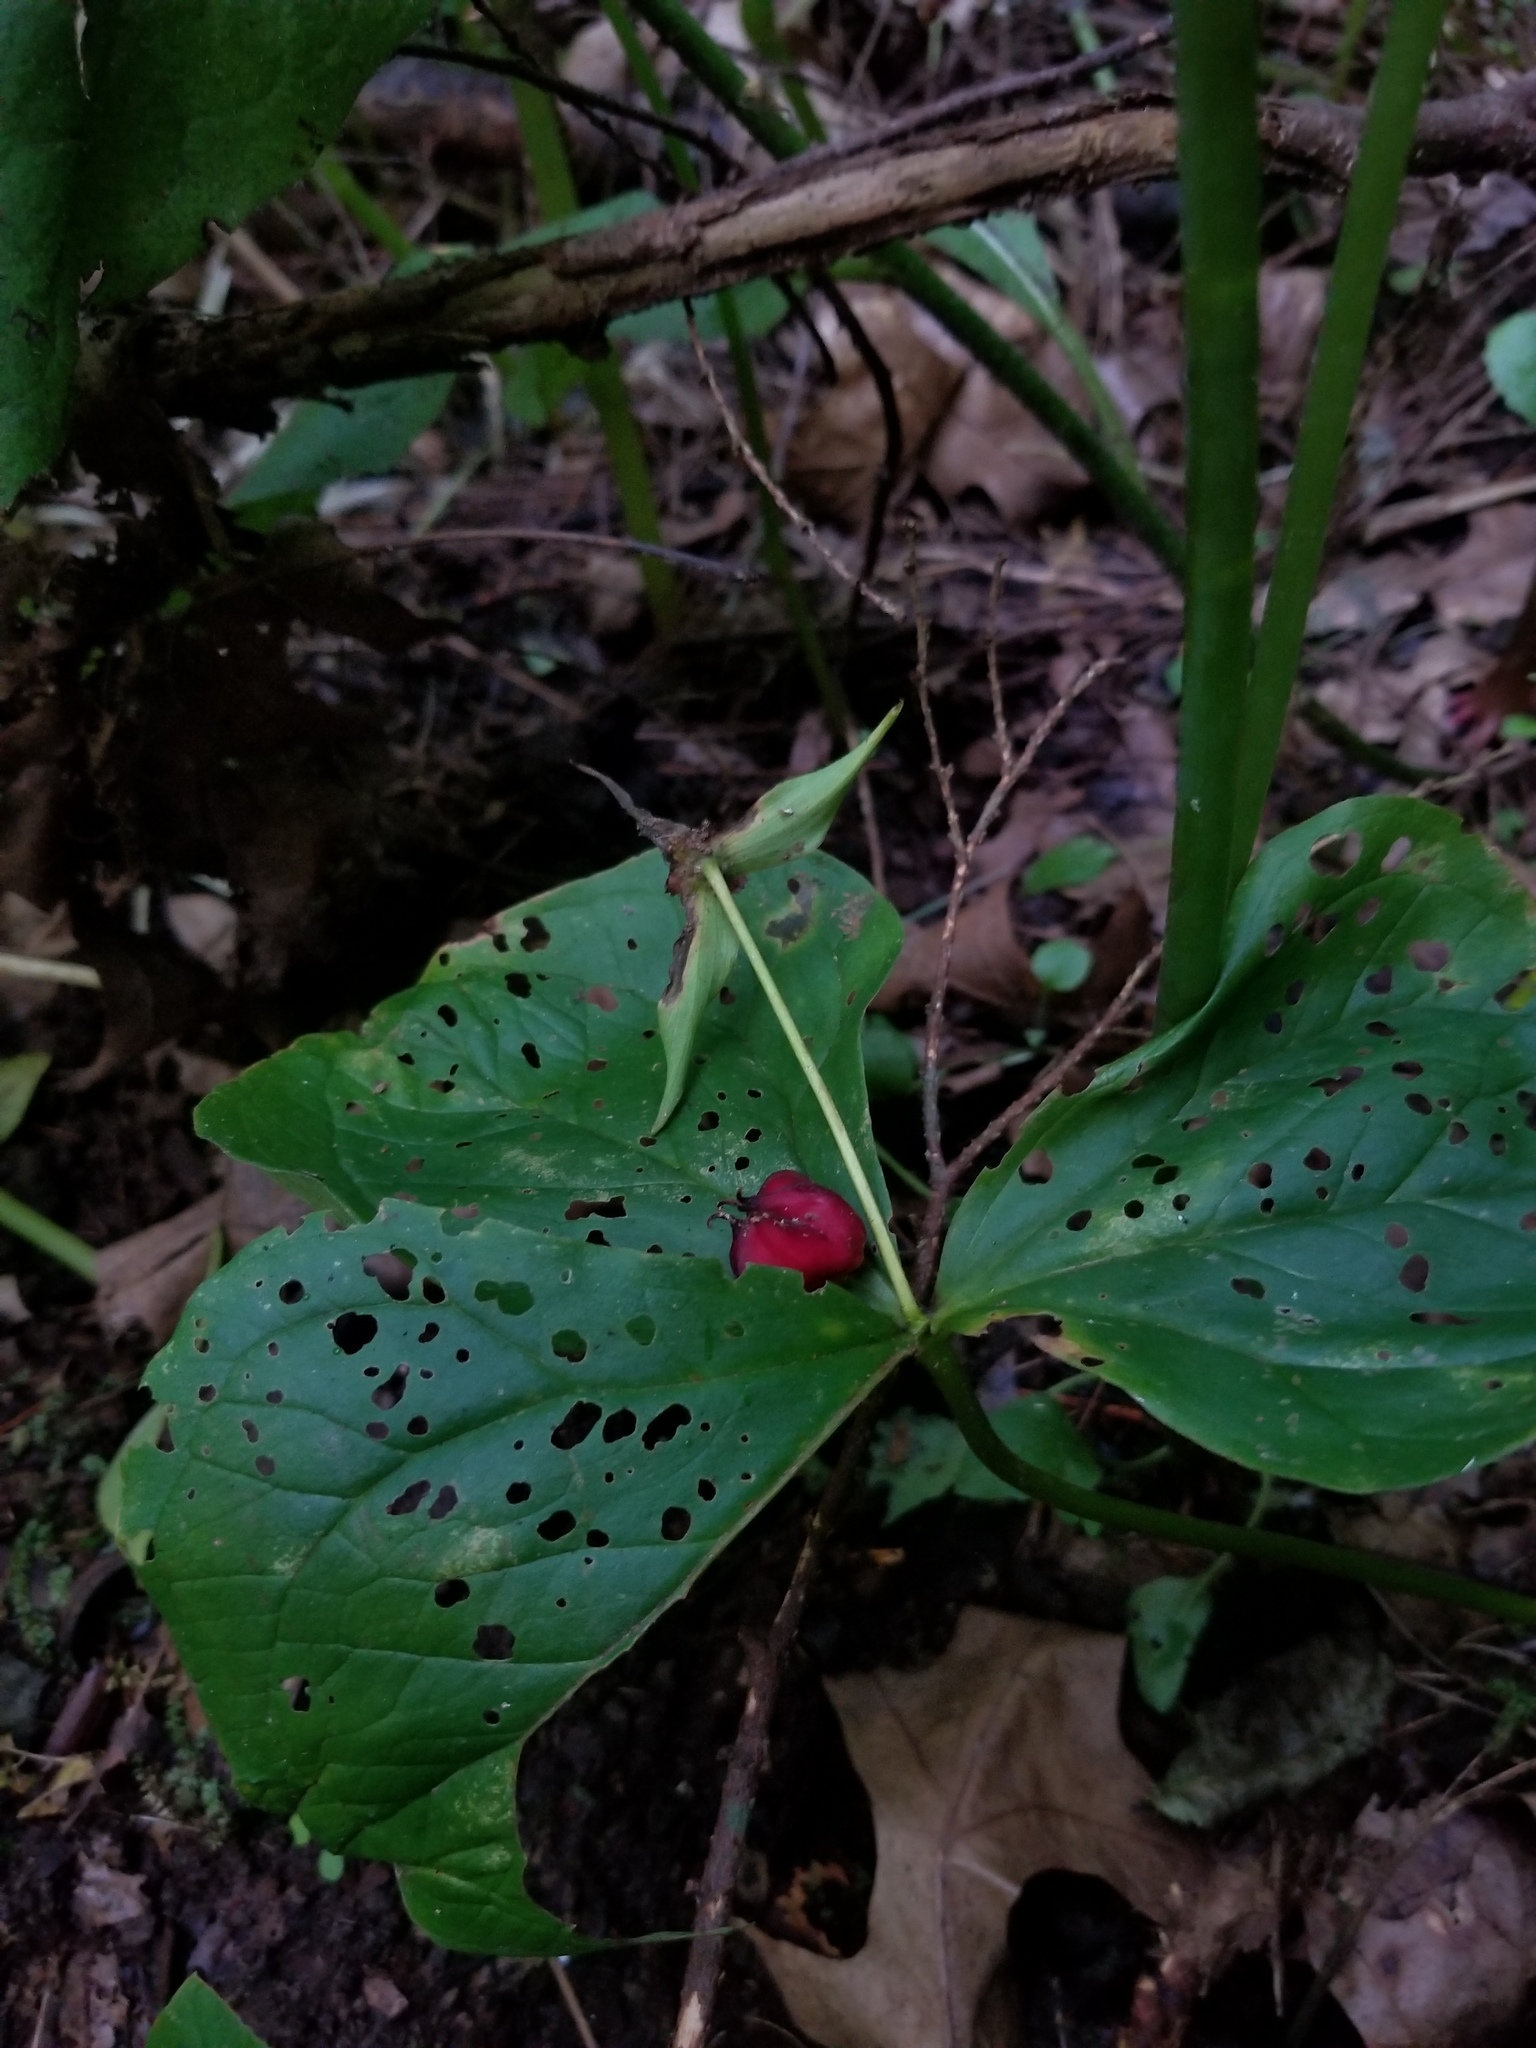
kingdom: Plantae
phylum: Tracheophyta
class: Liliopsida
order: Liliales
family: Melanthiaceae
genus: Trillium
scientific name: Trillium erectum
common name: Purple trillium
